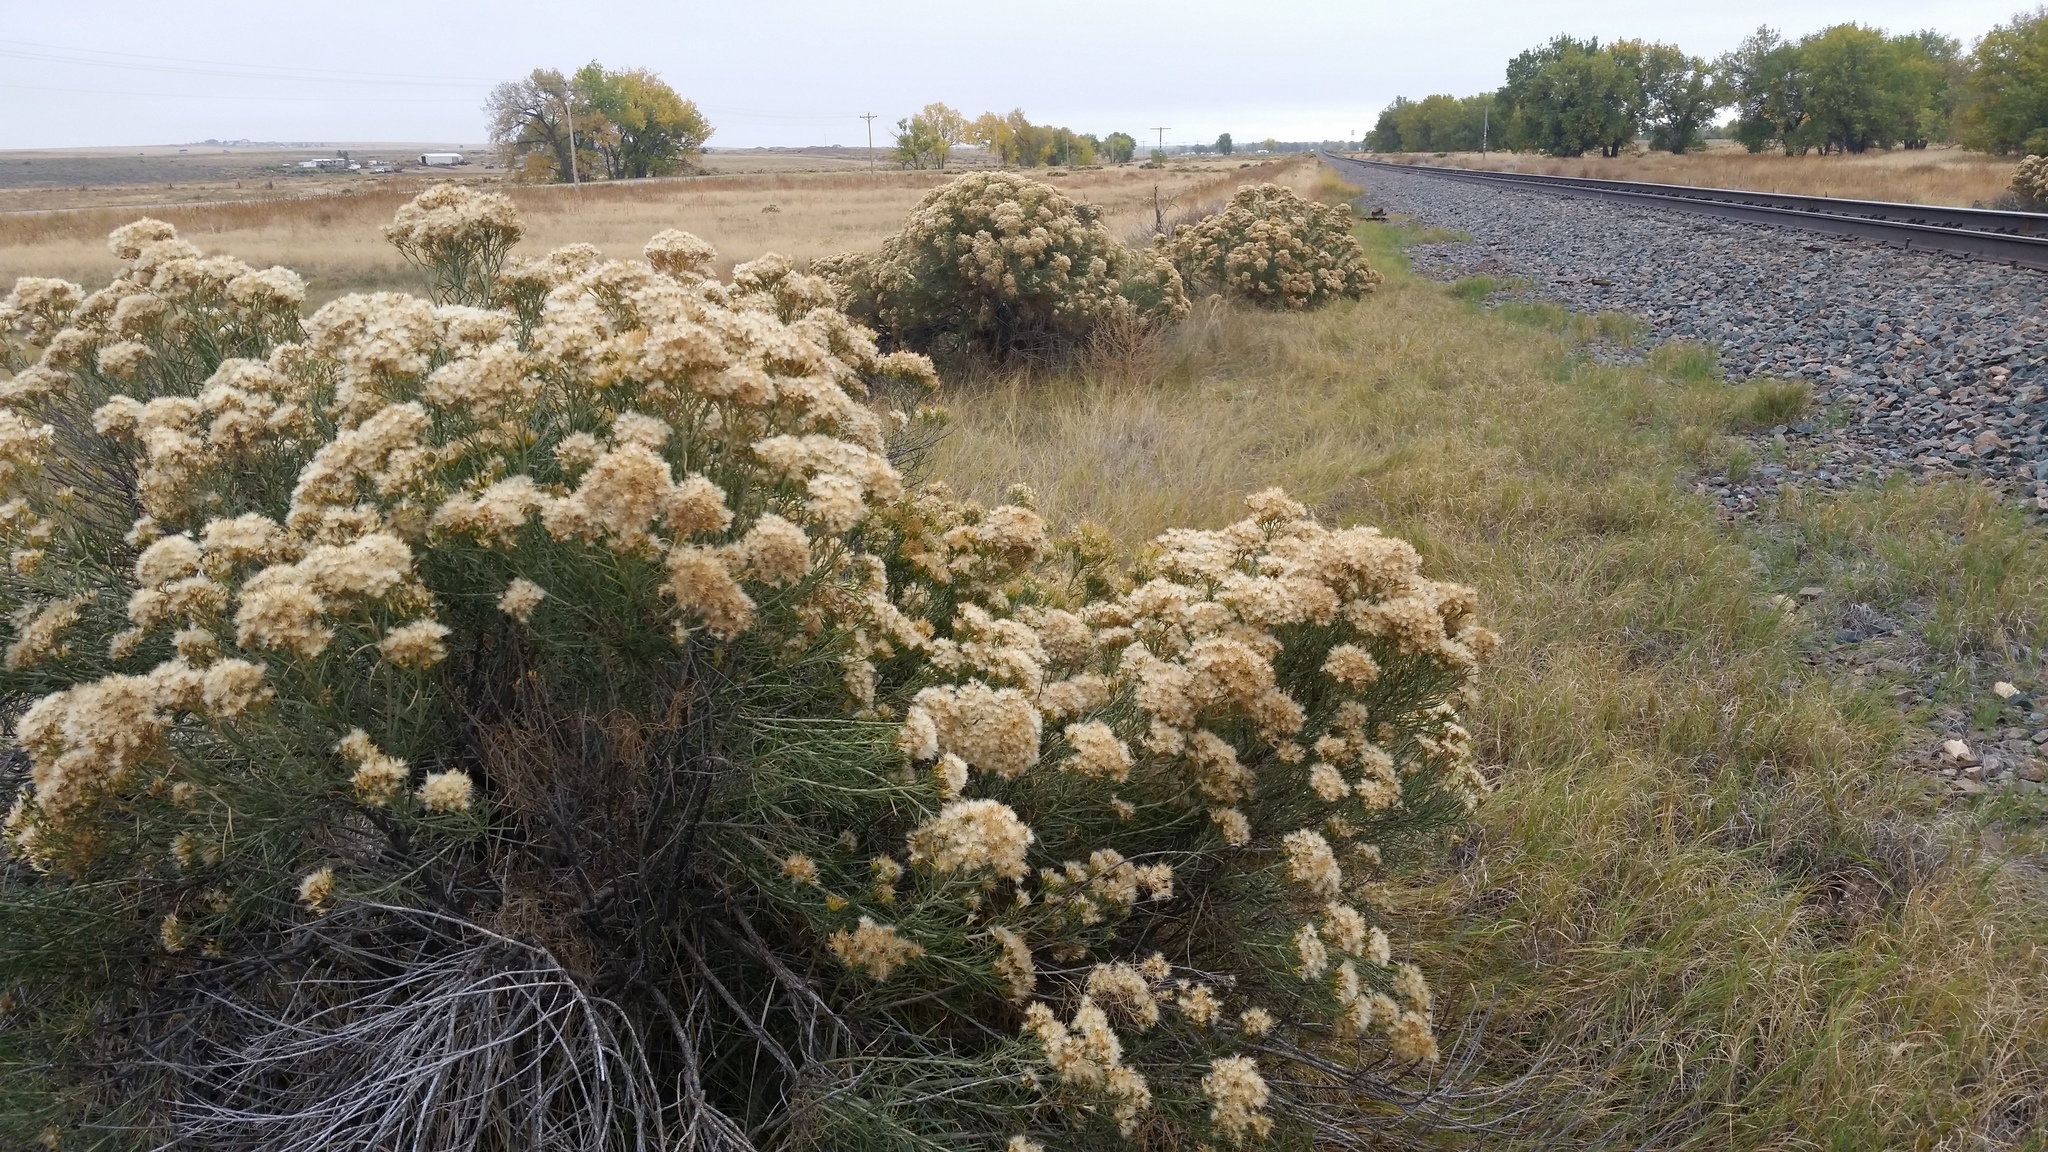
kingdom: Plantae
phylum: Tracheophyta
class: Magnoliopsida
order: Asterales
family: Asteraceae
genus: Ericameria
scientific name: Ericameria nauseosa
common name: Rubber rabbitbrush
